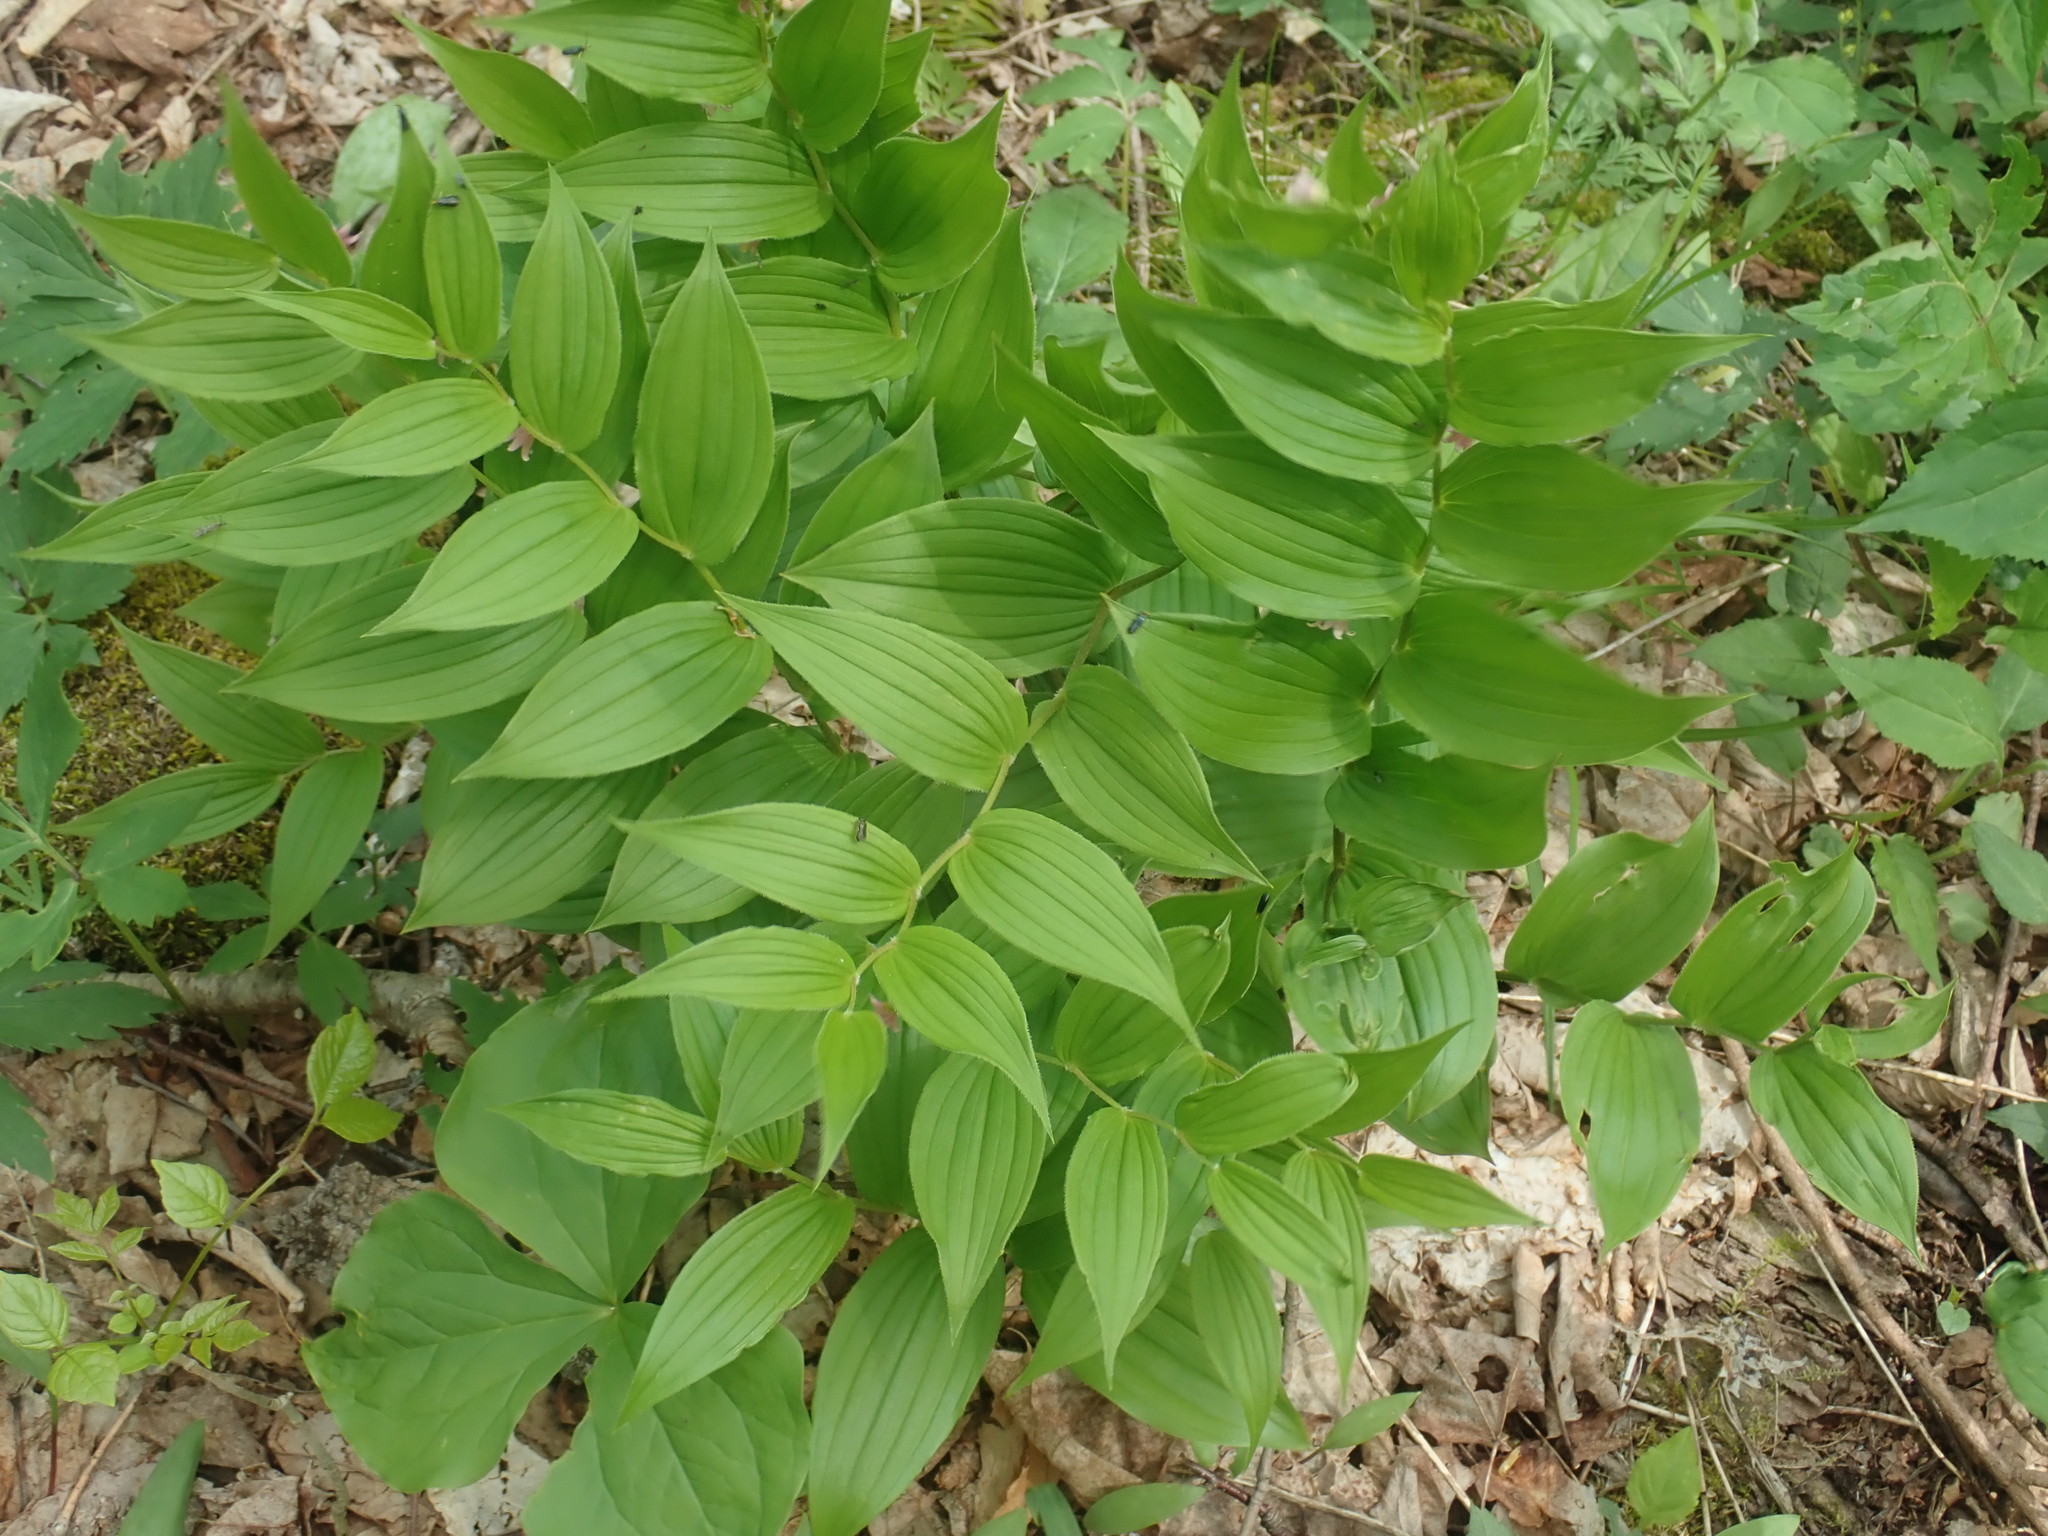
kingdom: Plantae
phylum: Tracheophyta
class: Liliopsida
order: Liliales
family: Liliaceae
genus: Streptopus
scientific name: Streptopus lanceolatus
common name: Rose mandarin
